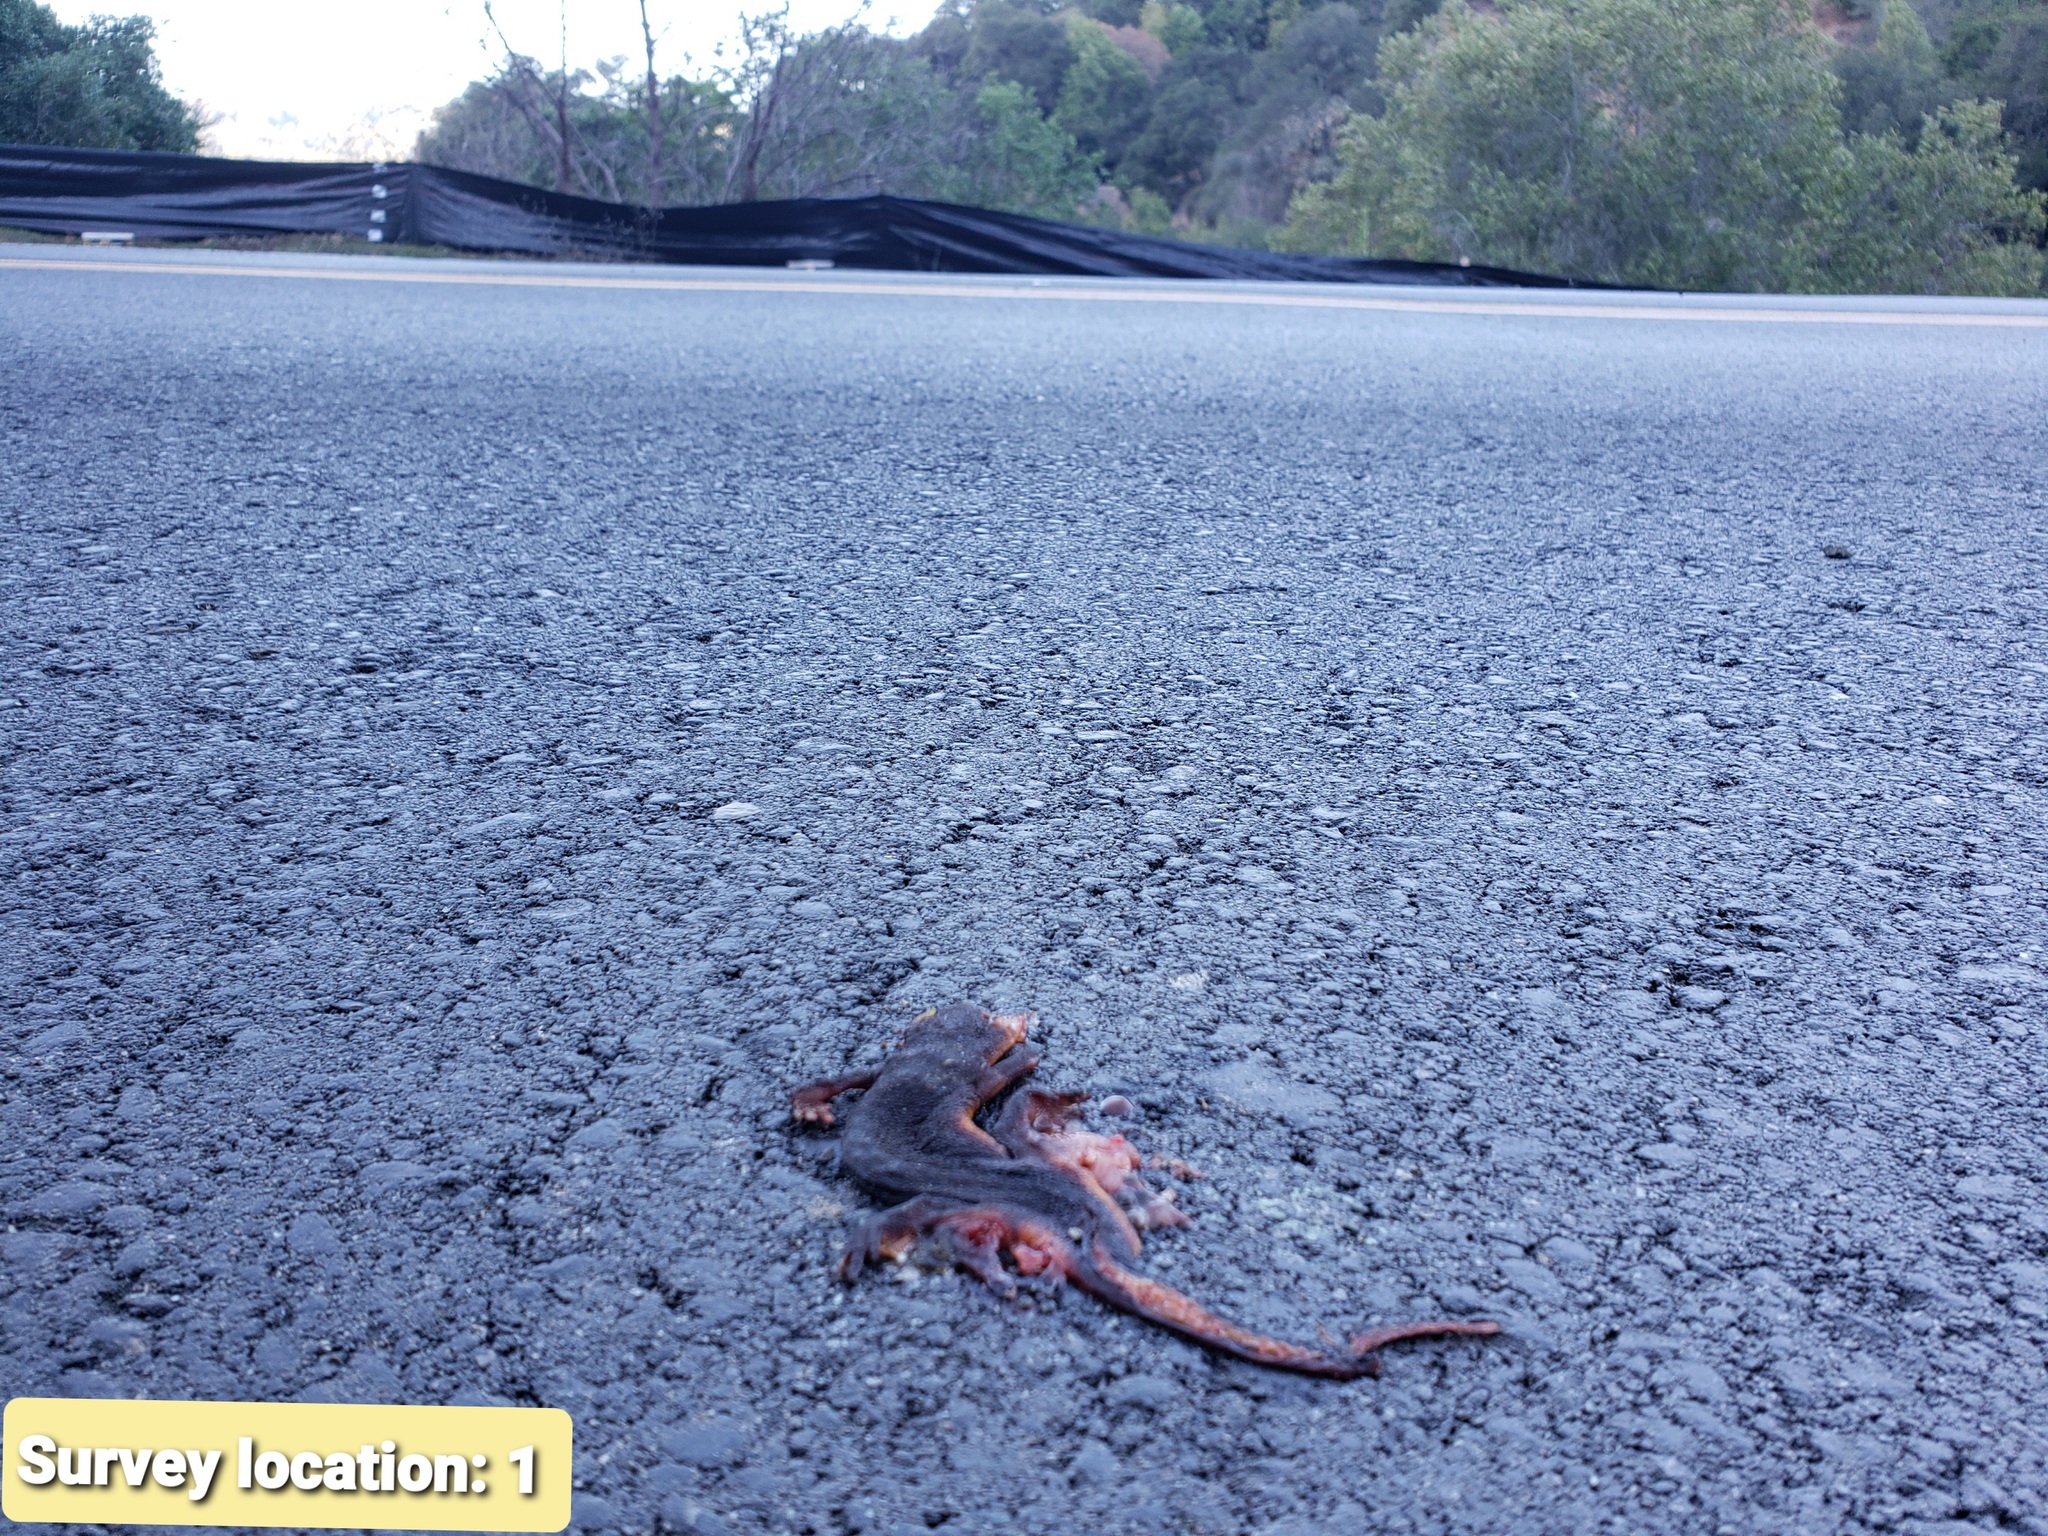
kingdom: Animalia
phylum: Chordata
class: Amphibia
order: Caudata
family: Salamandridae
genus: Taricha
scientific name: Taricha
